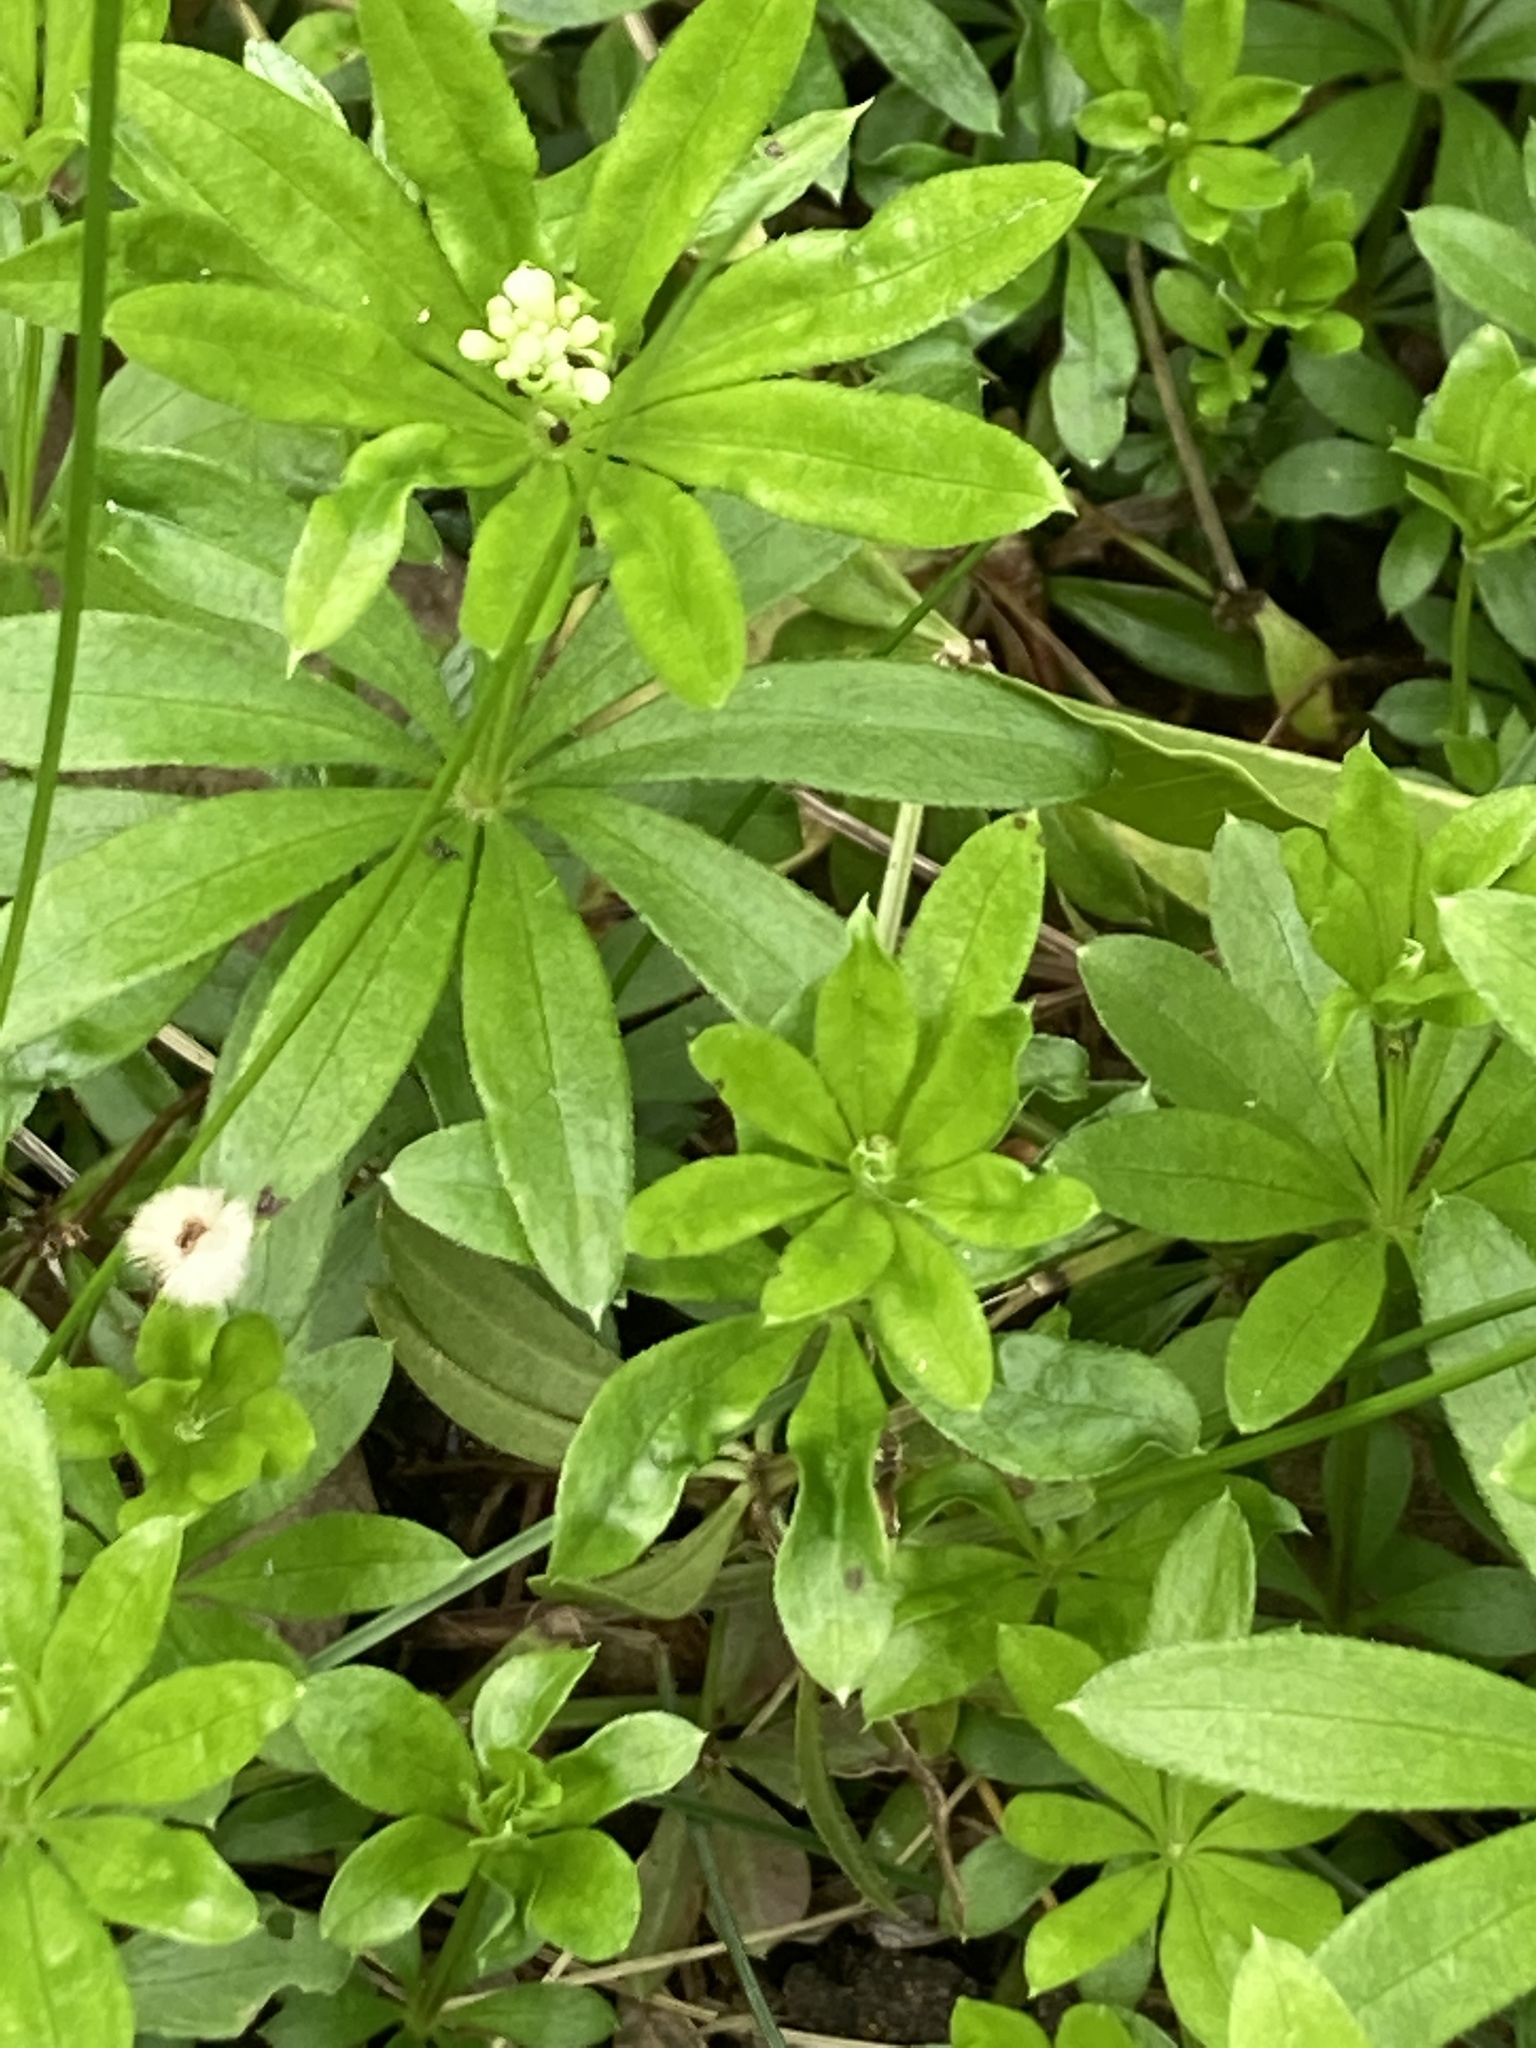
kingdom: Plantae
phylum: Tracheophyta
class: Magnoliopsida
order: Gentianales
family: Rubiaceae
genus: Galium
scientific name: Galium odoratum
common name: Sweet woodruff
